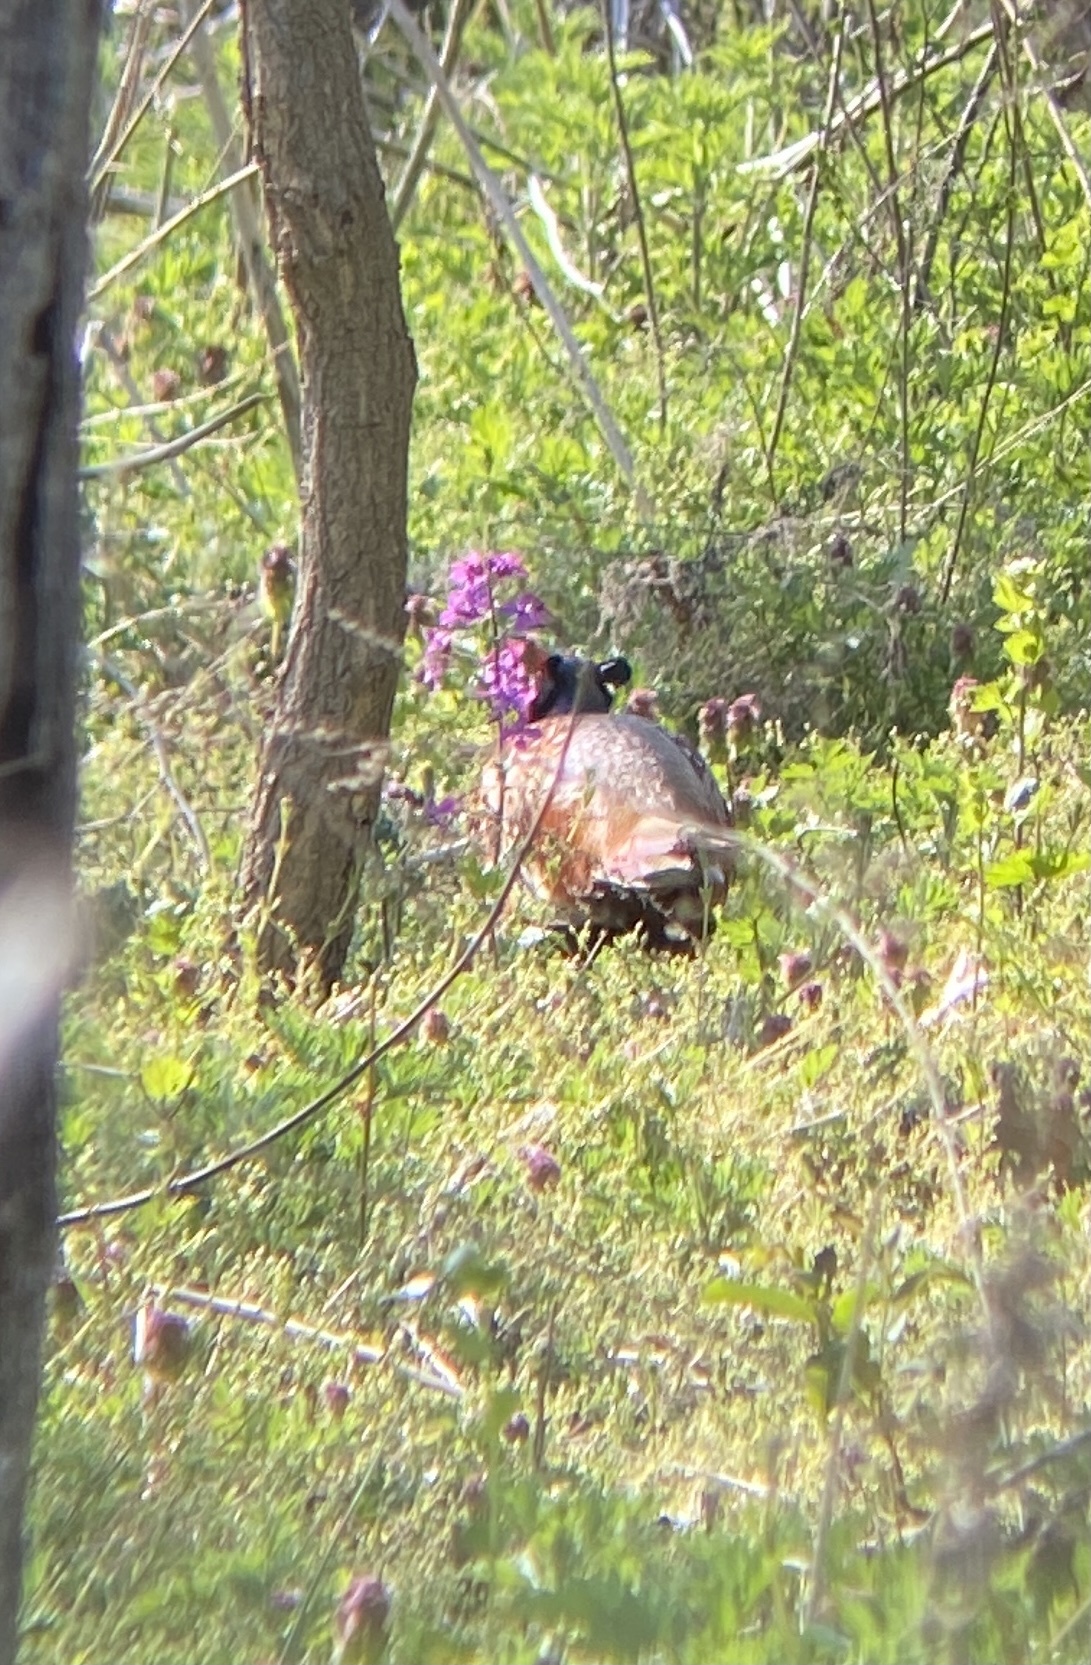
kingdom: Animalia
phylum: Chordata
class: Aves
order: Galliformes
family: Phasianidae
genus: Phasianus
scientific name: Phasianus colchicus
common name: Common pheasant
